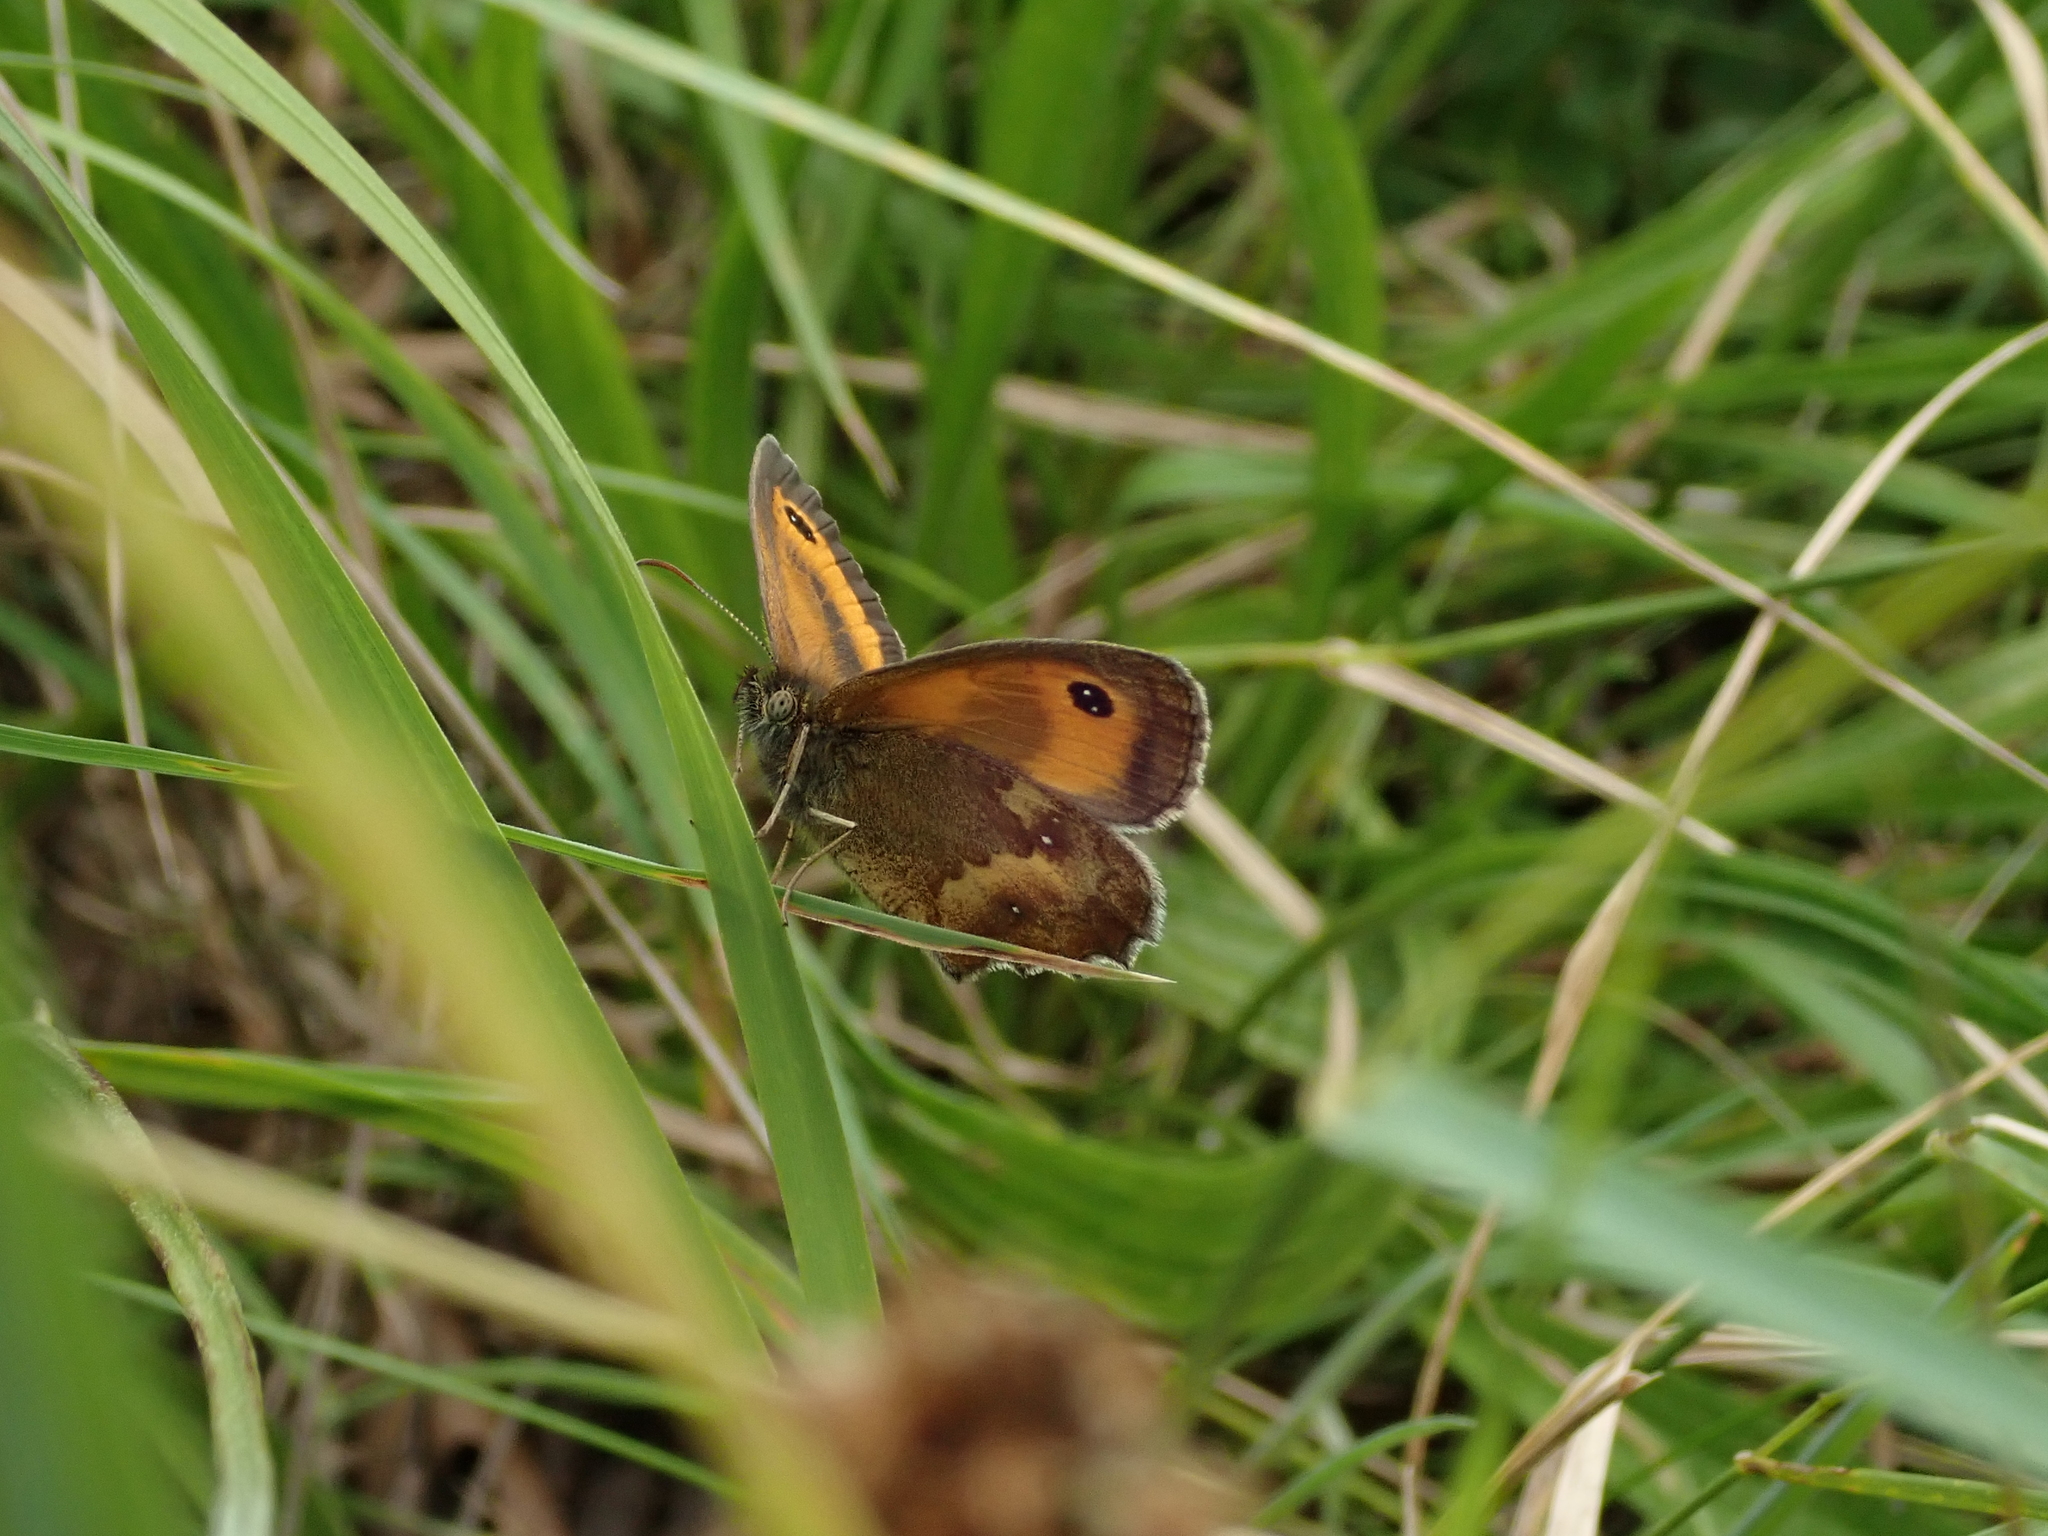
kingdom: Animalia
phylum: Arthropoda
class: Insecta
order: Lepidoptera
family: Nymphalidae
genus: Pyronia
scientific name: Pyronia tithonus
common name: Gatekeeper
